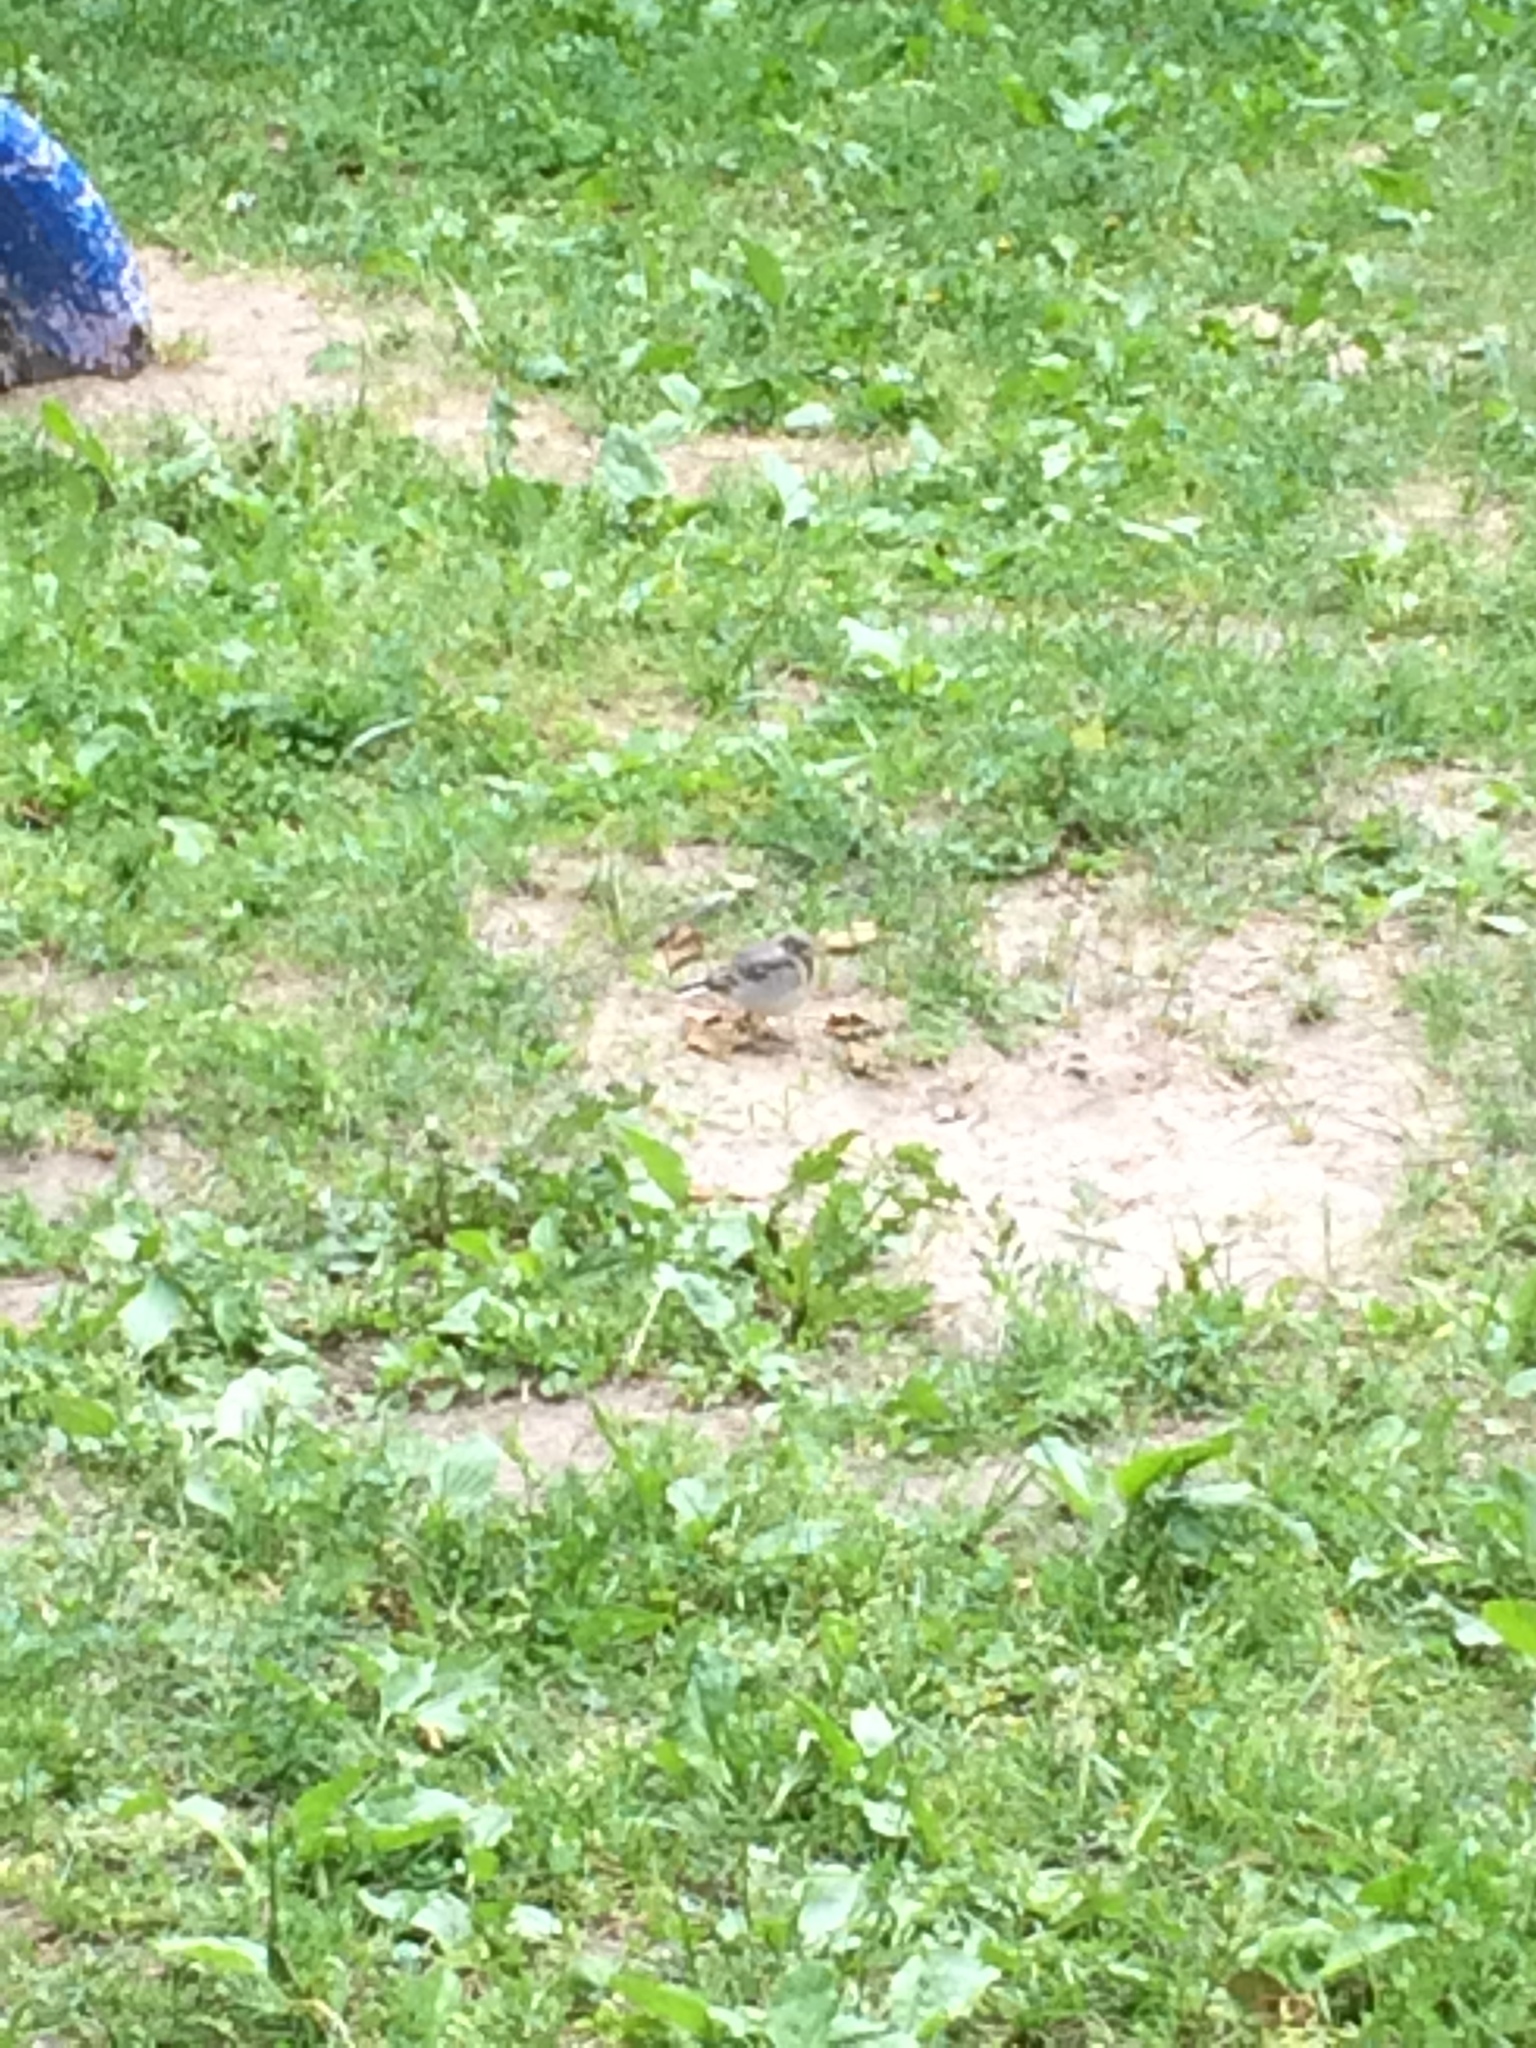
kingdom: Animalia
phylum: Chordata
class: Aves
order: Passeriformes
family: Motacillidae
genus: Motacilla
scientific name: Motacilla alba
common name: White wagtail
